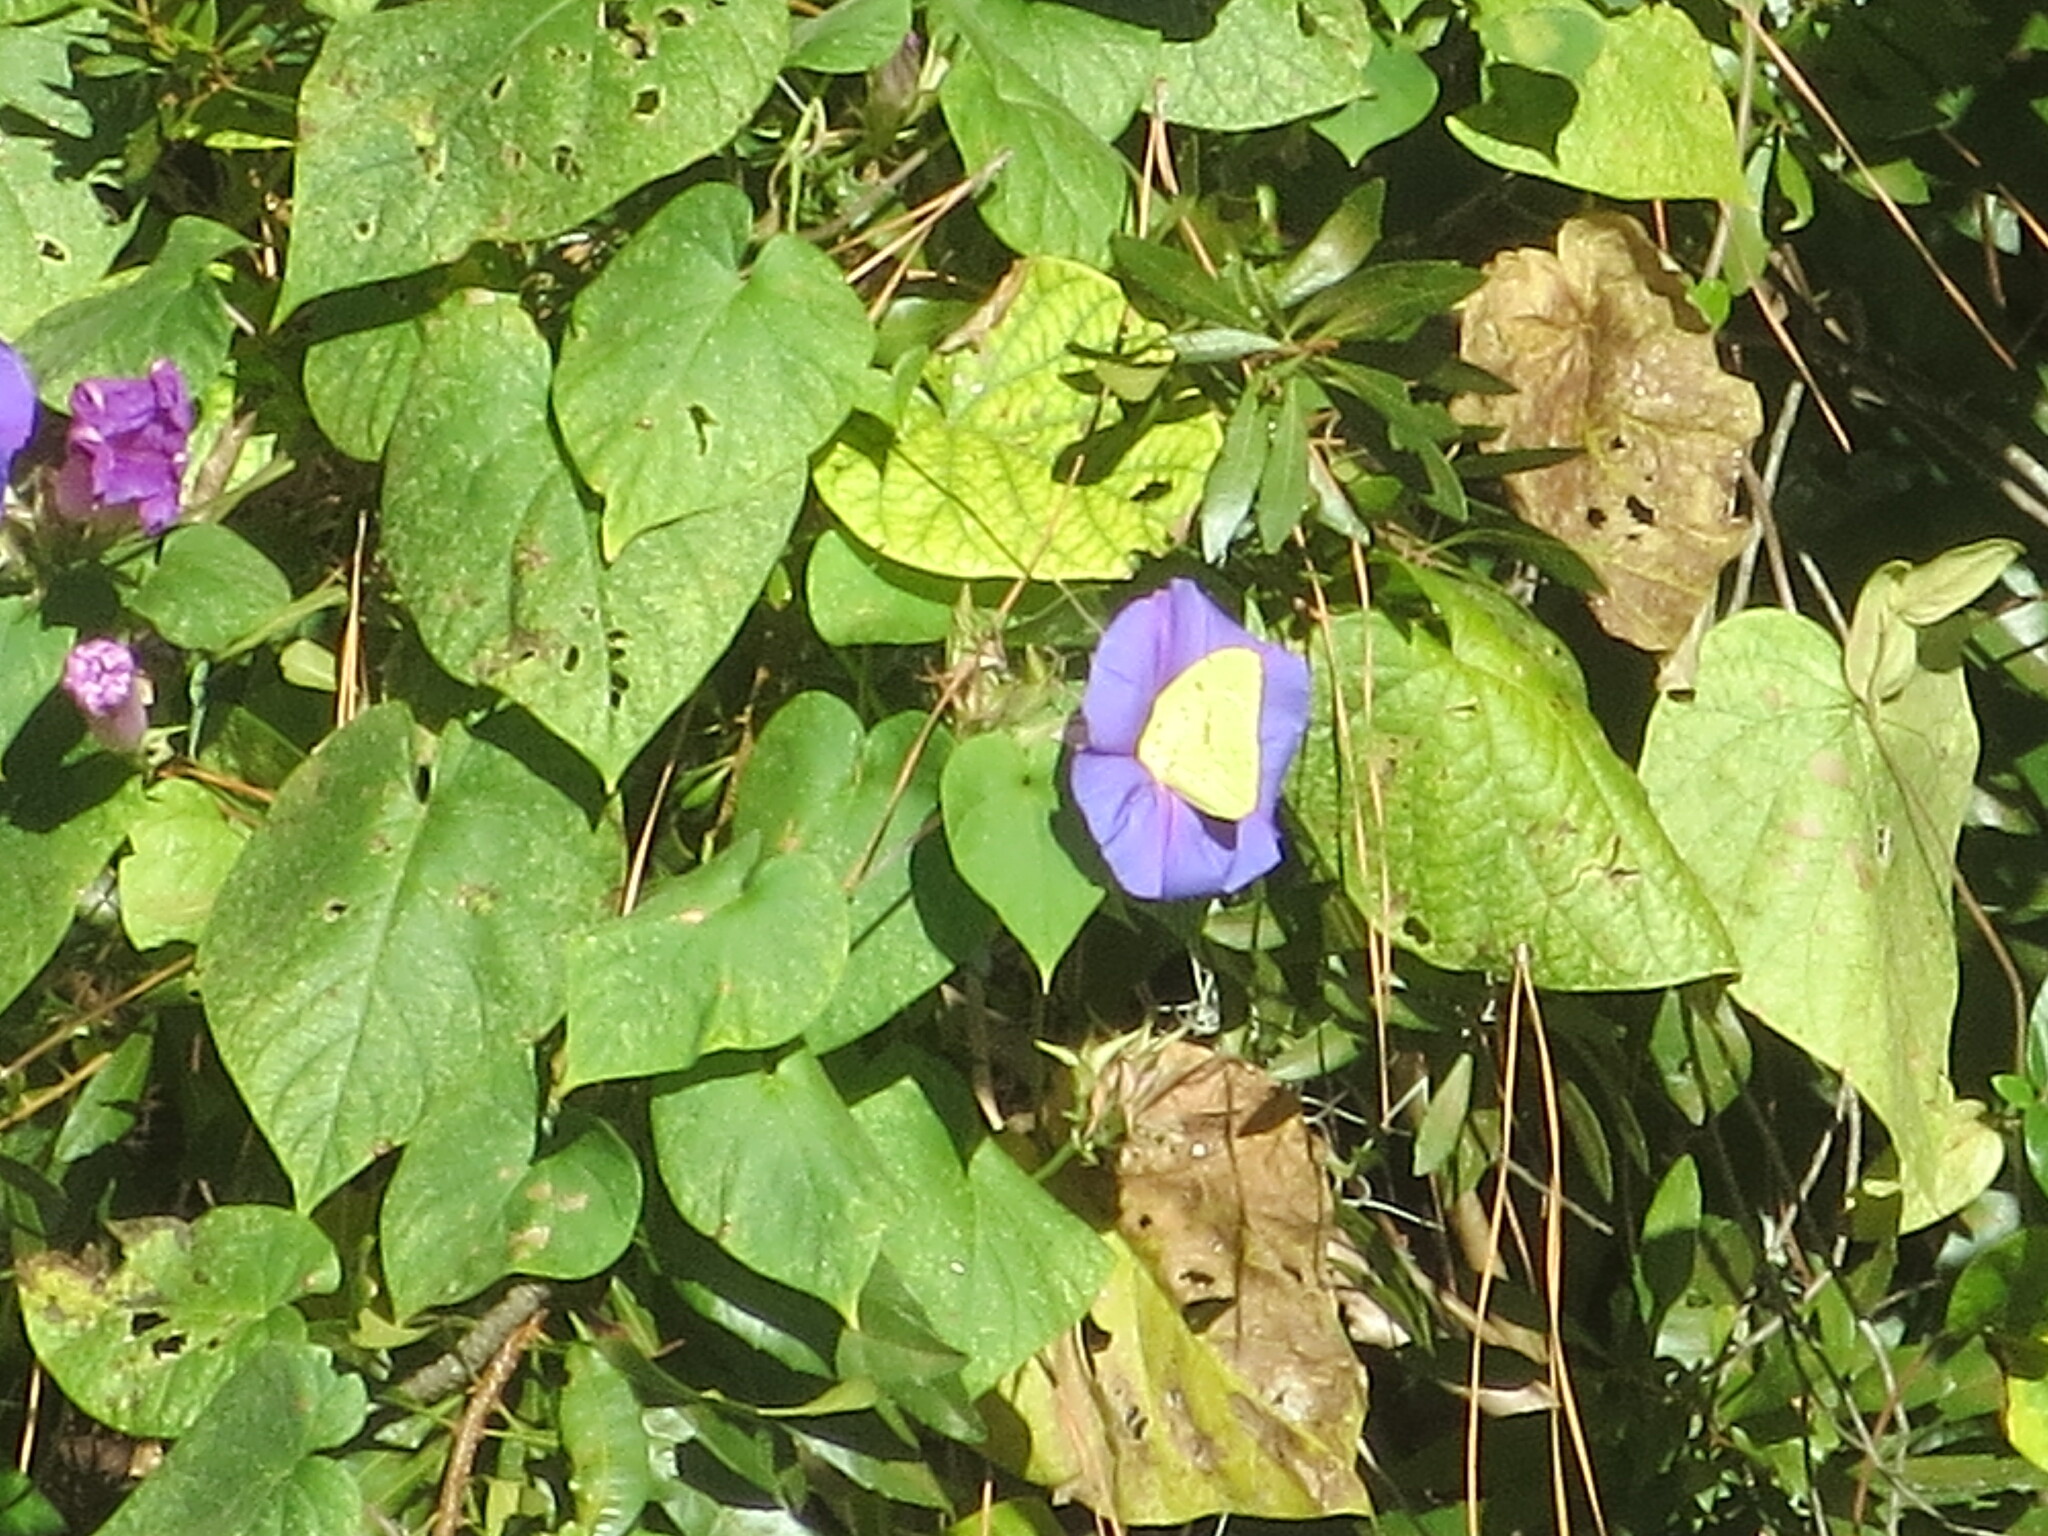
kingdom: Plantae
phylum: Tracheophyta
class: Magnoliopsida
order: Solanales
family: Convolvulaceae
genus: Ipomoea
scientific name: Ipomoea indica
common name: Blue dawnflower
